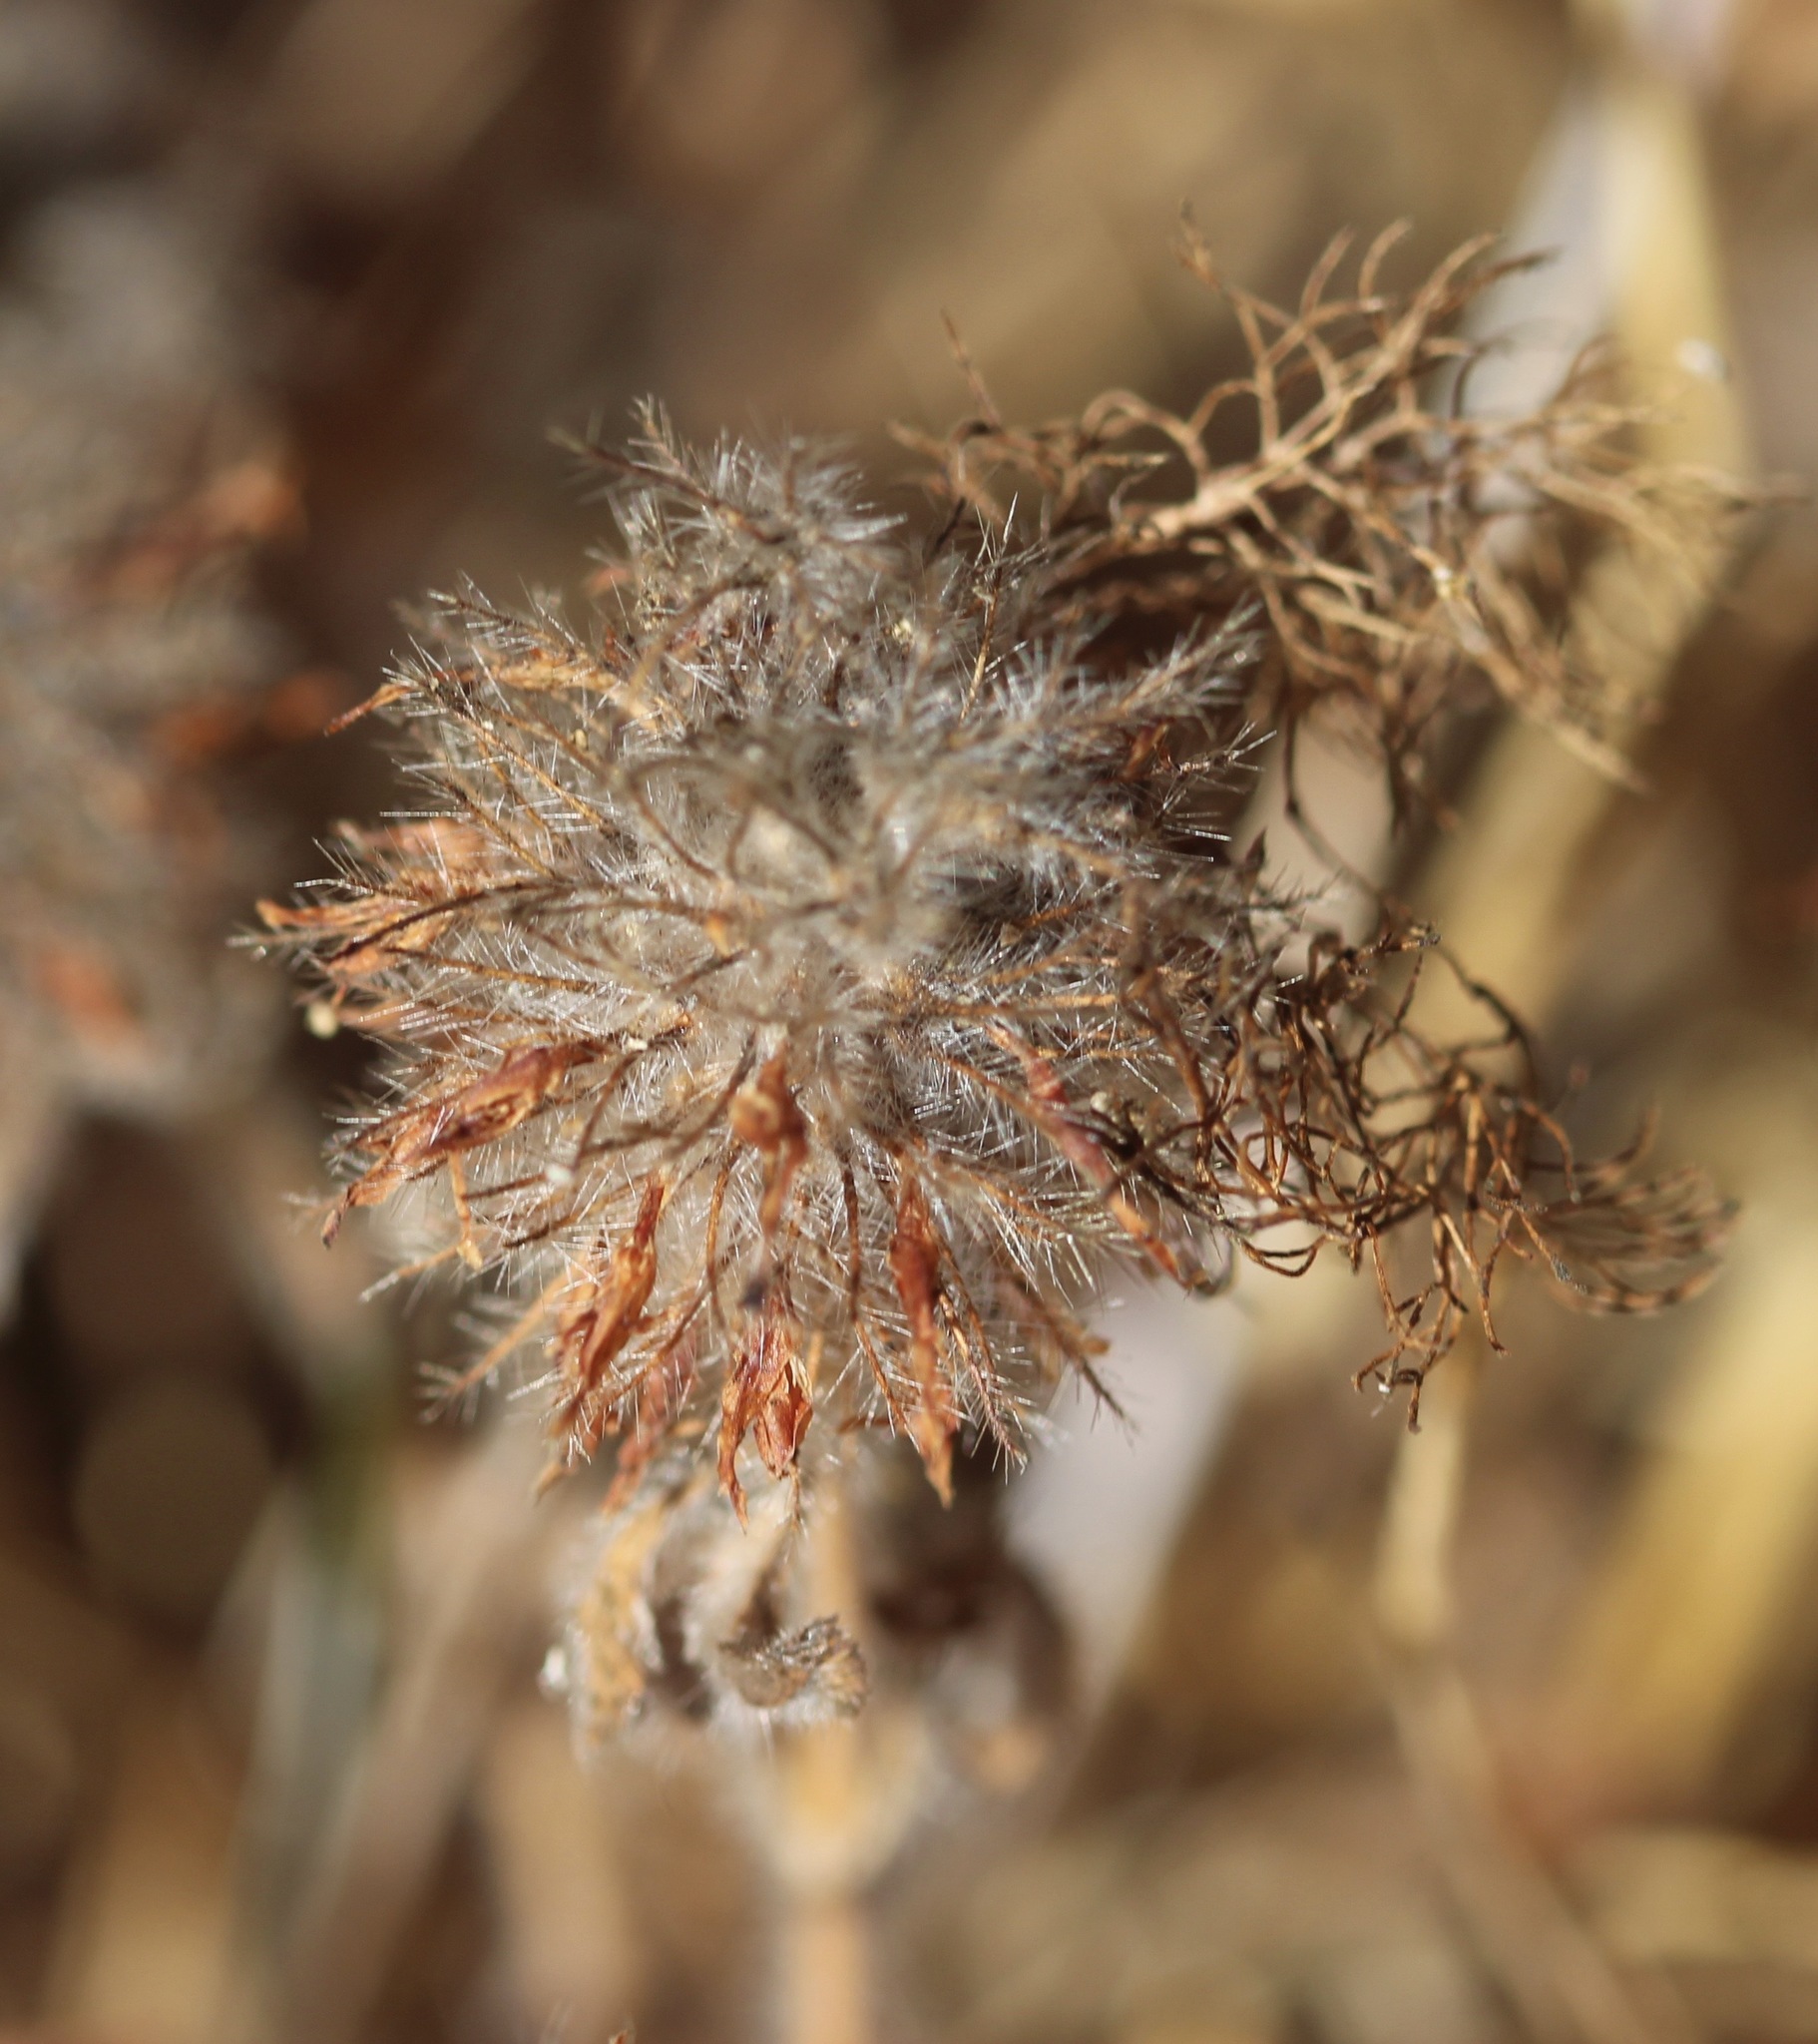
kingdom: Plantae
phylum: Tracheophyta
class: Magnoliopsida
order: Fabales
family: Fabaceae
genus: Trifolium
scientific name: Trifolium hirtum
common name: Rose clover
